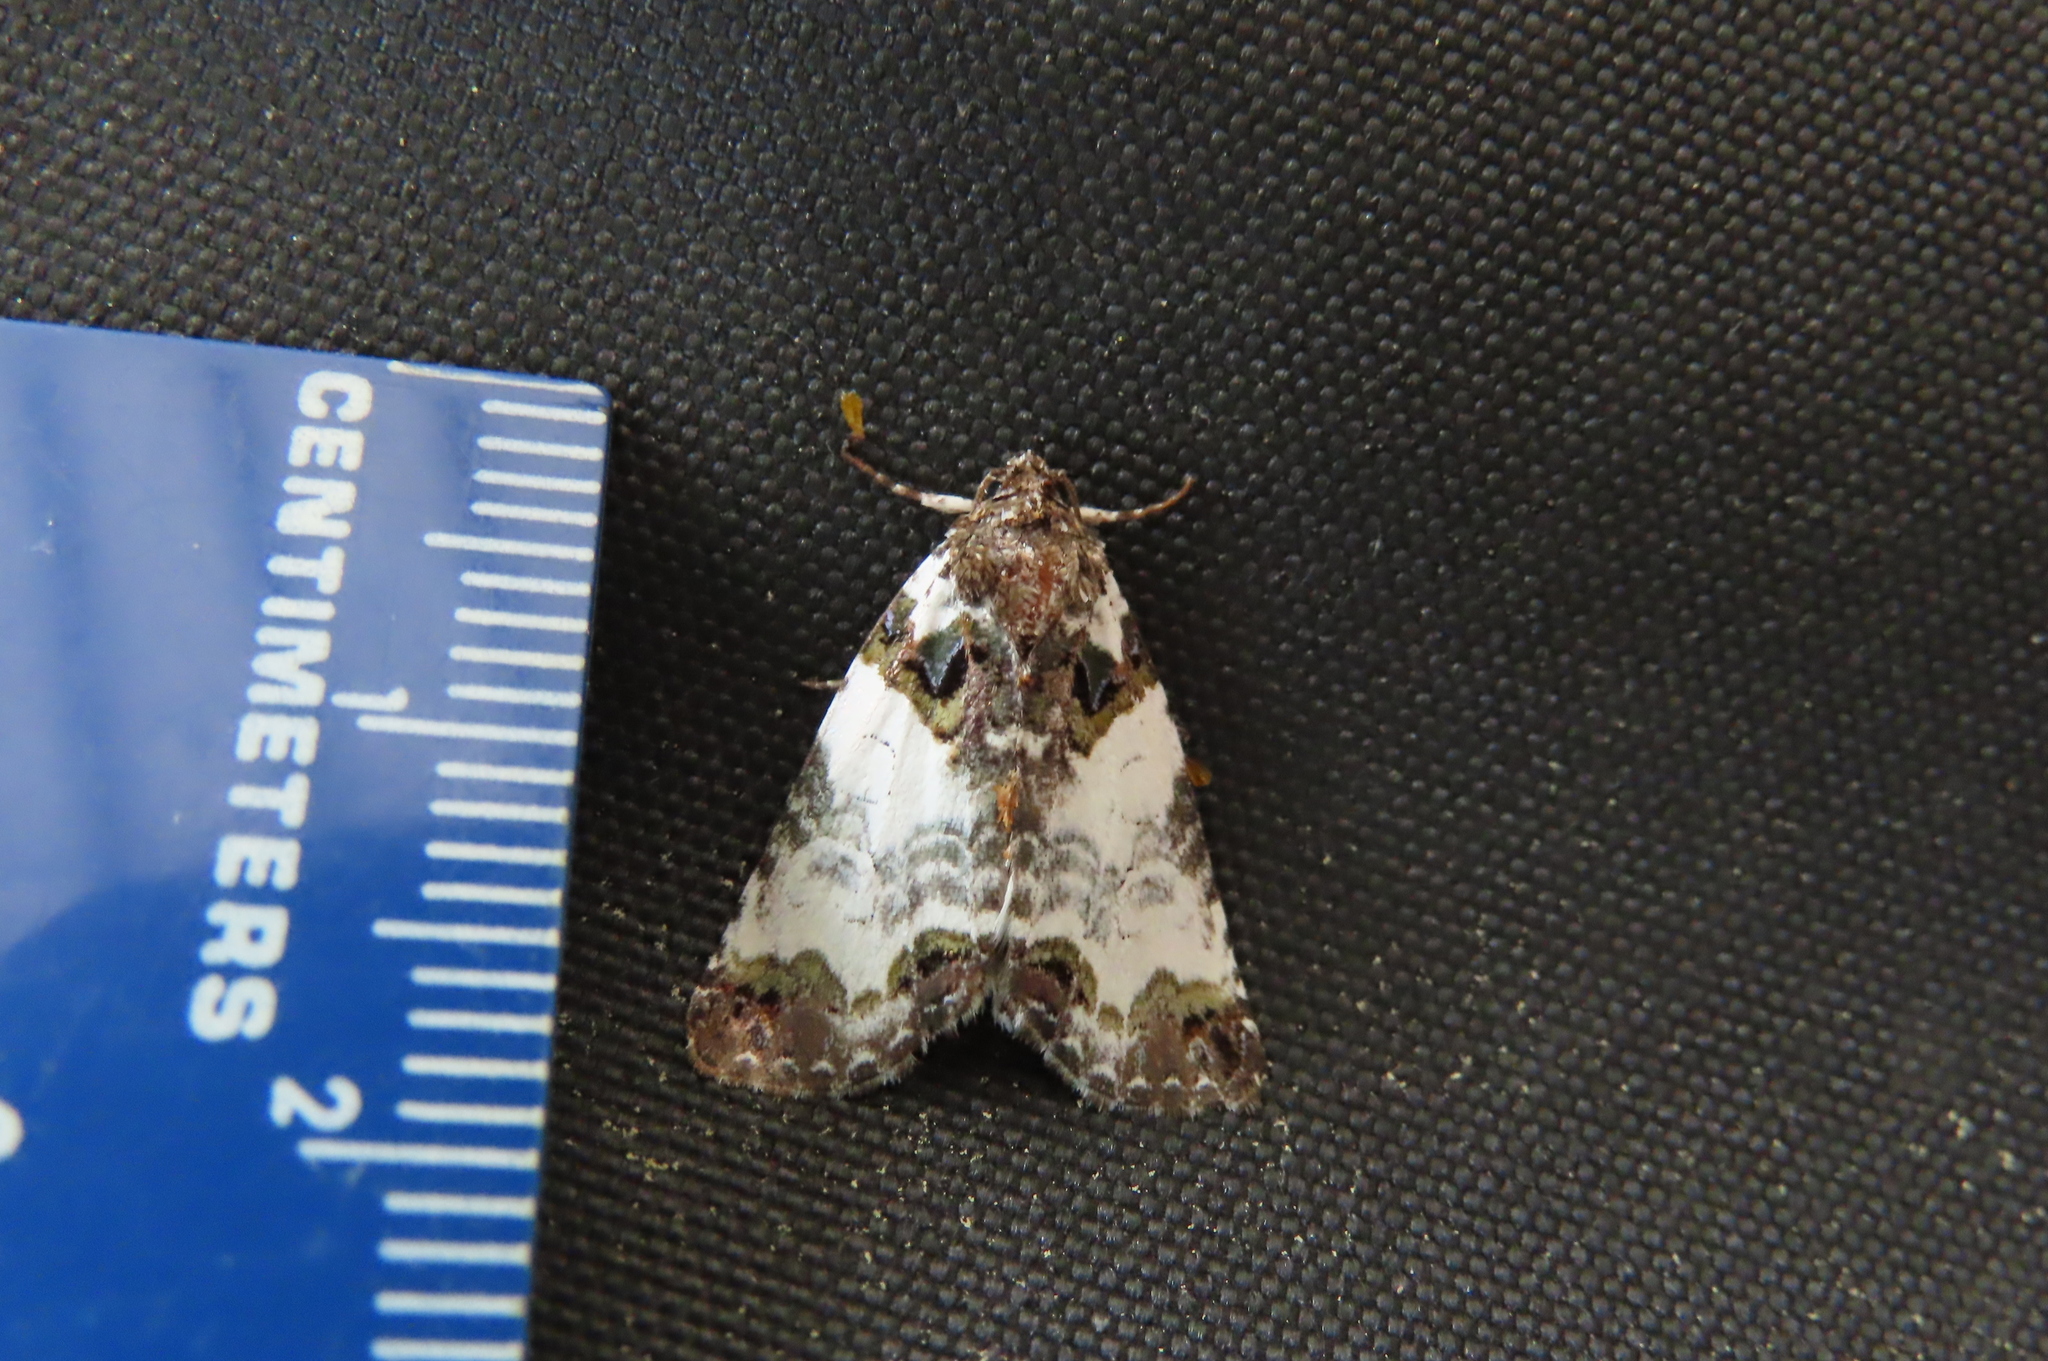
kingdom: Animalia
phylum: Arthropoda
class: Insecta
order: Lepidoptera
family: Noctuidae
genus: Cerma
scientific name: Cerma cerintha
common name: Tufted bird-dropping moth
